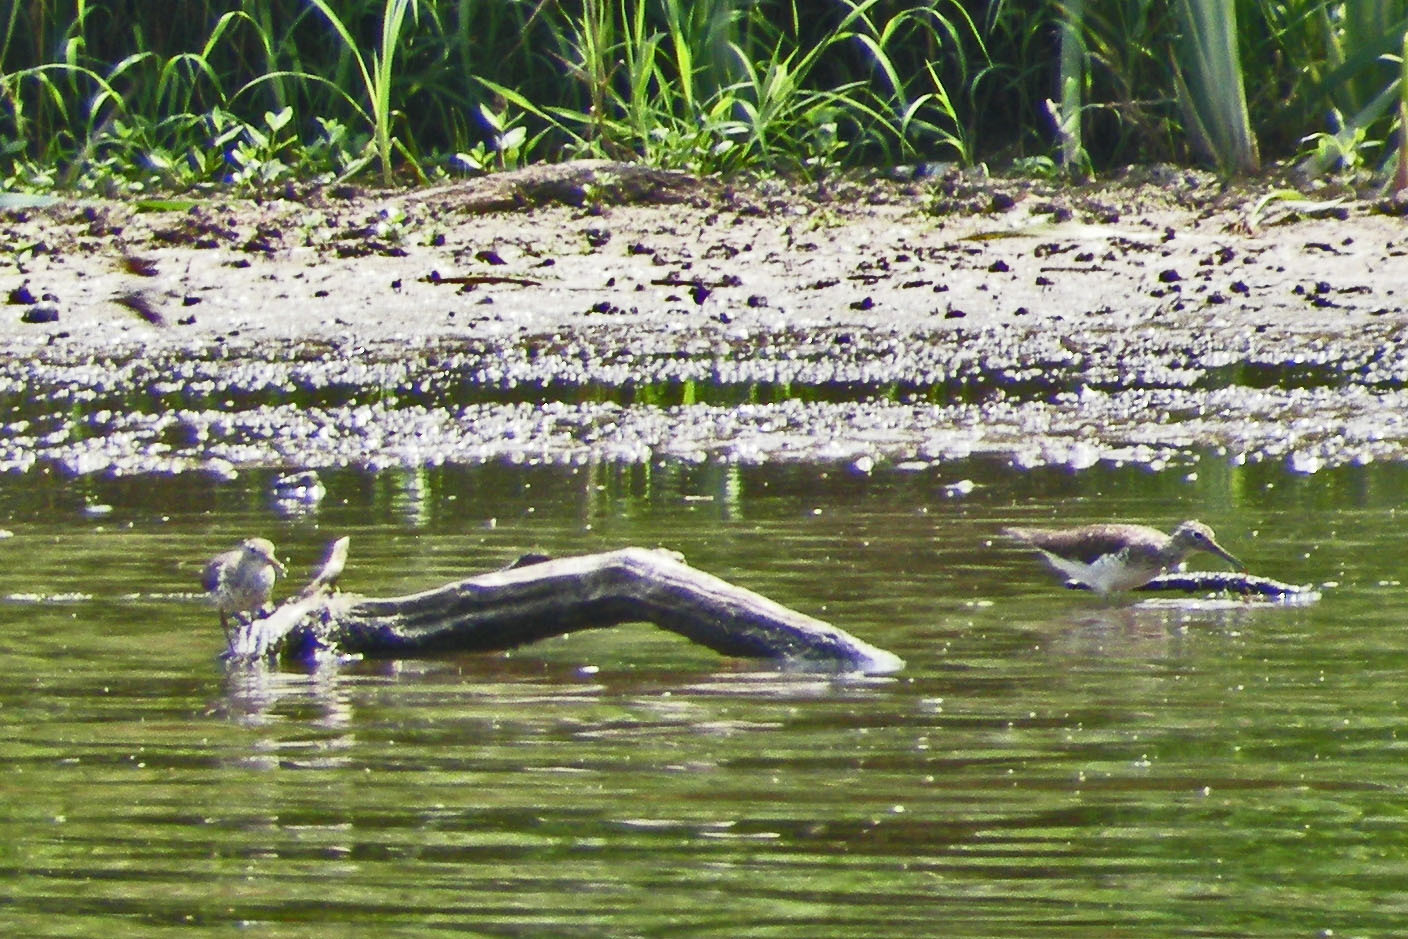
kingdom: Animalia
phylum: Chordata
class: Aves
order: Charadriiformes
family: Scolopacidae
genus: Tringa
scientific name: Tringa solitaria
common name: Solitary sandpiper
